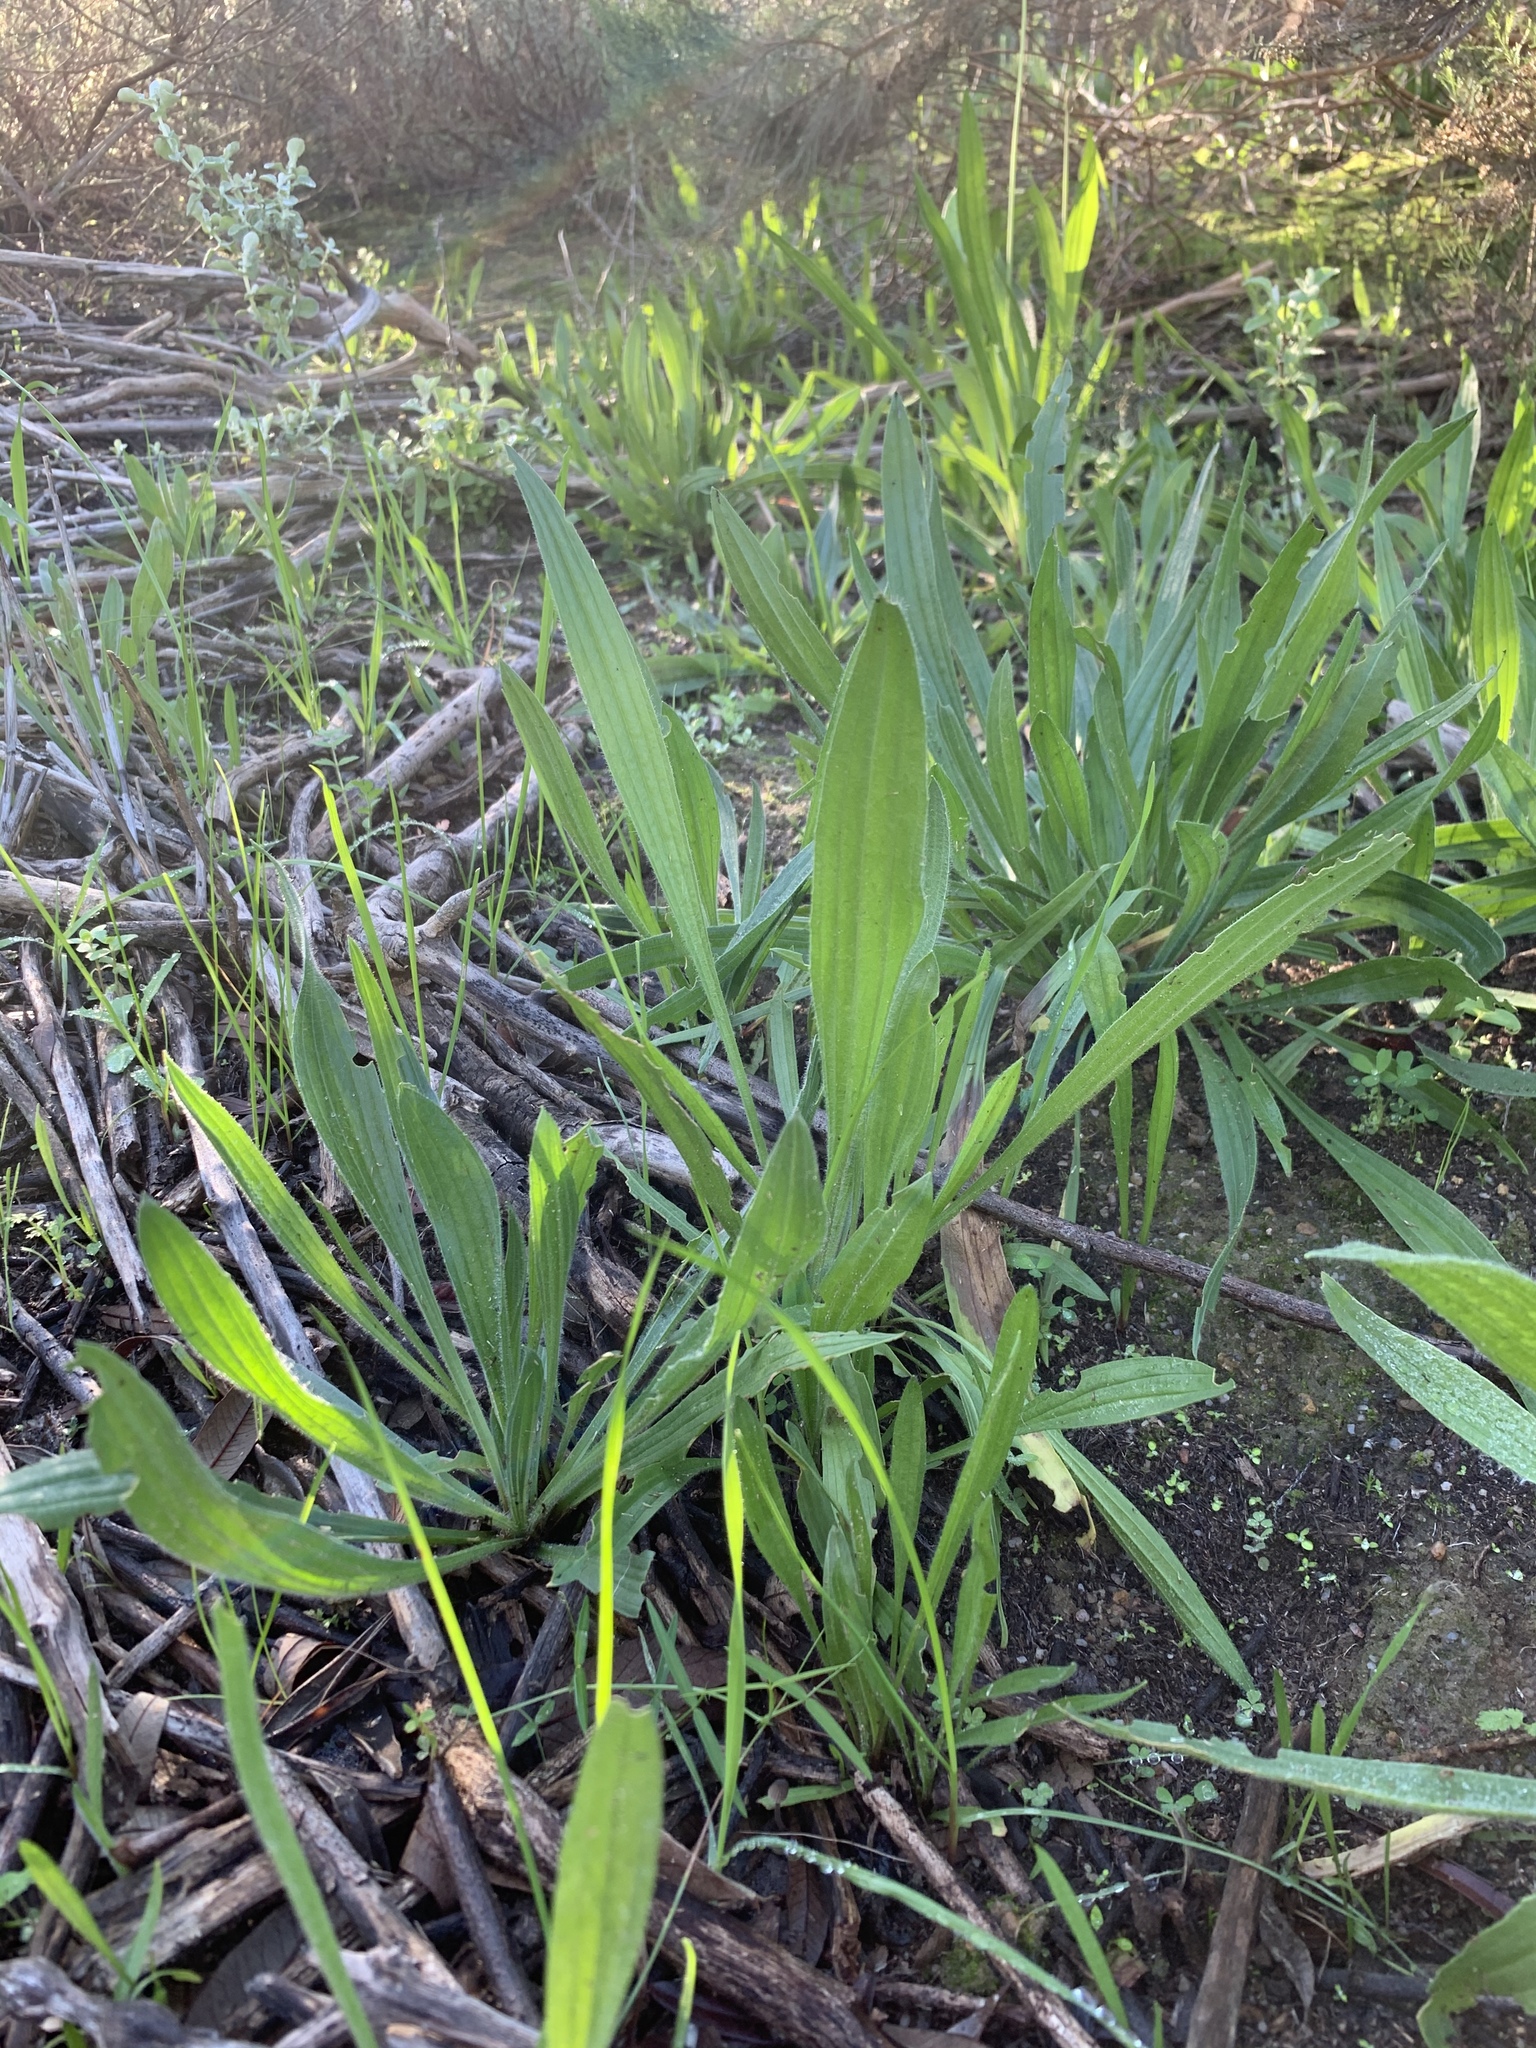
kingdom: Plantae
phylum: Tracheophyta
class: Magnoliopsida
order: Lamiales
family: Plantaginaceae
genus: Plantago
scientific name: Plantago lanceolata
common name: Ribwort plantain
